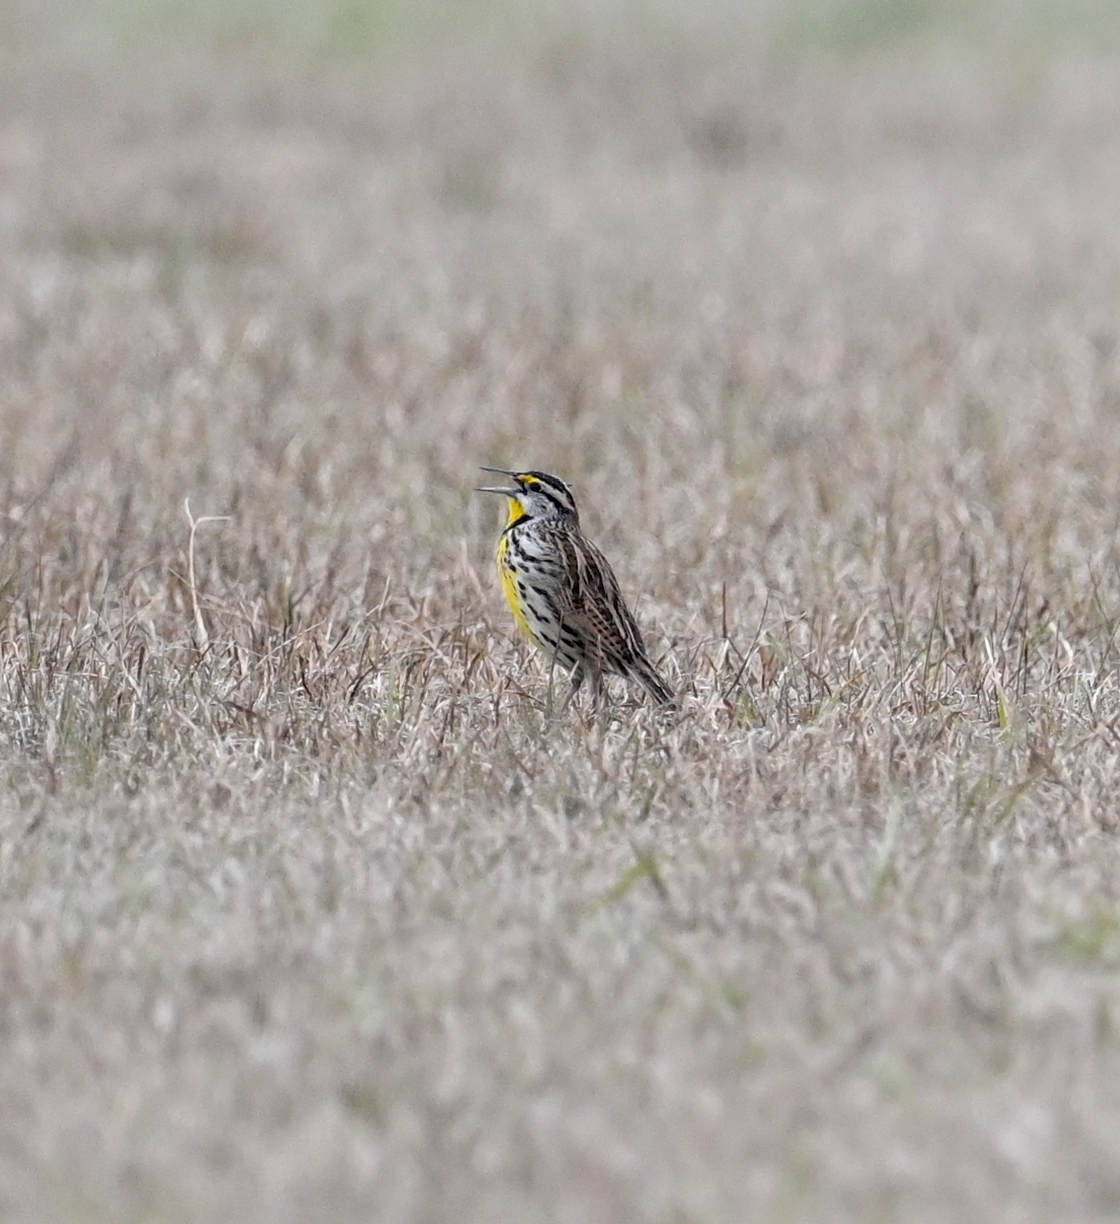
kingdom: Animalia
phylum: Chordata
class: Aves
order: Passeriformes
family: Icteridae
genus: Sturnella
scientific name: Sturnella magna
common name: Eastern meadowlark
